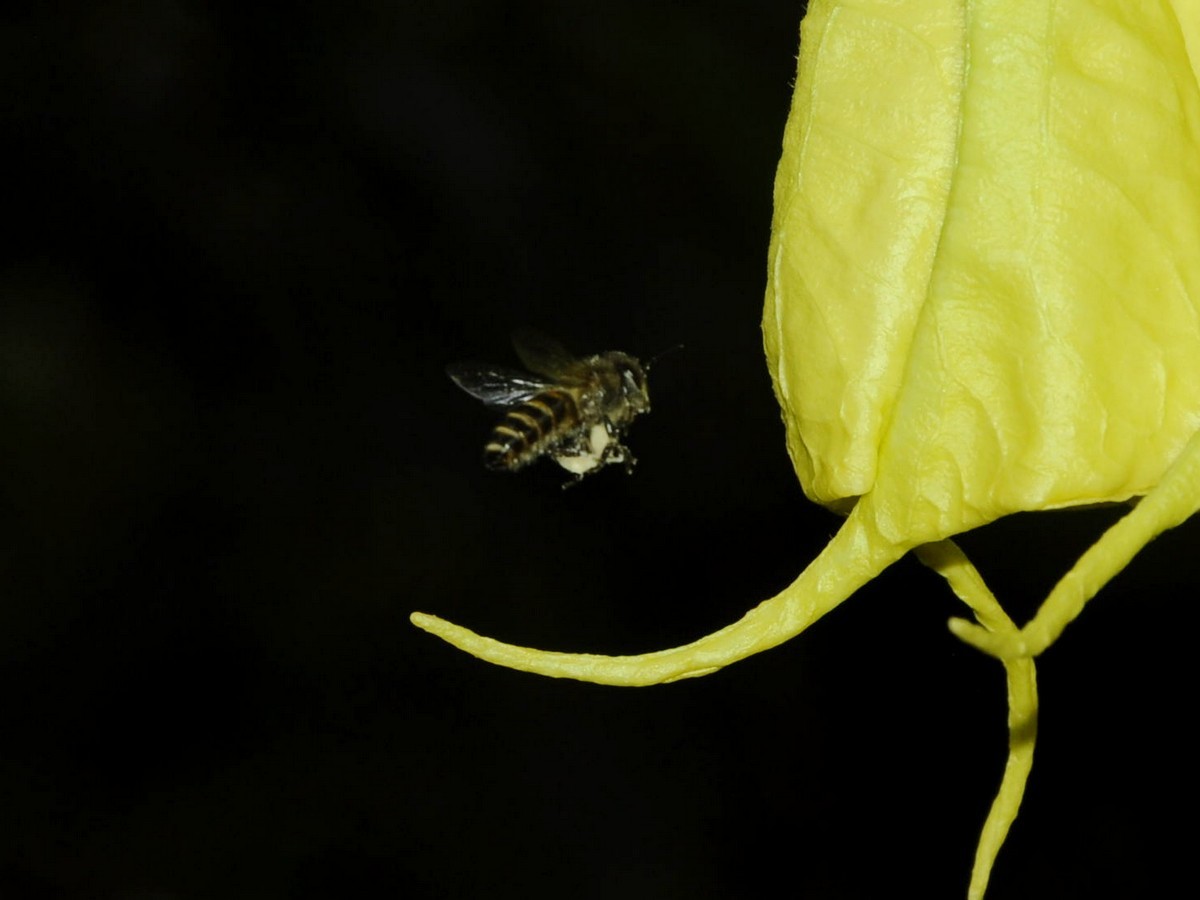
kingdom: Animalia
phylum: Arthropoda
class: Insecta
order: Hymenoptera
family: Apidae
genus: Apis
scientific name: Apis cerana
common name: Honey bee
